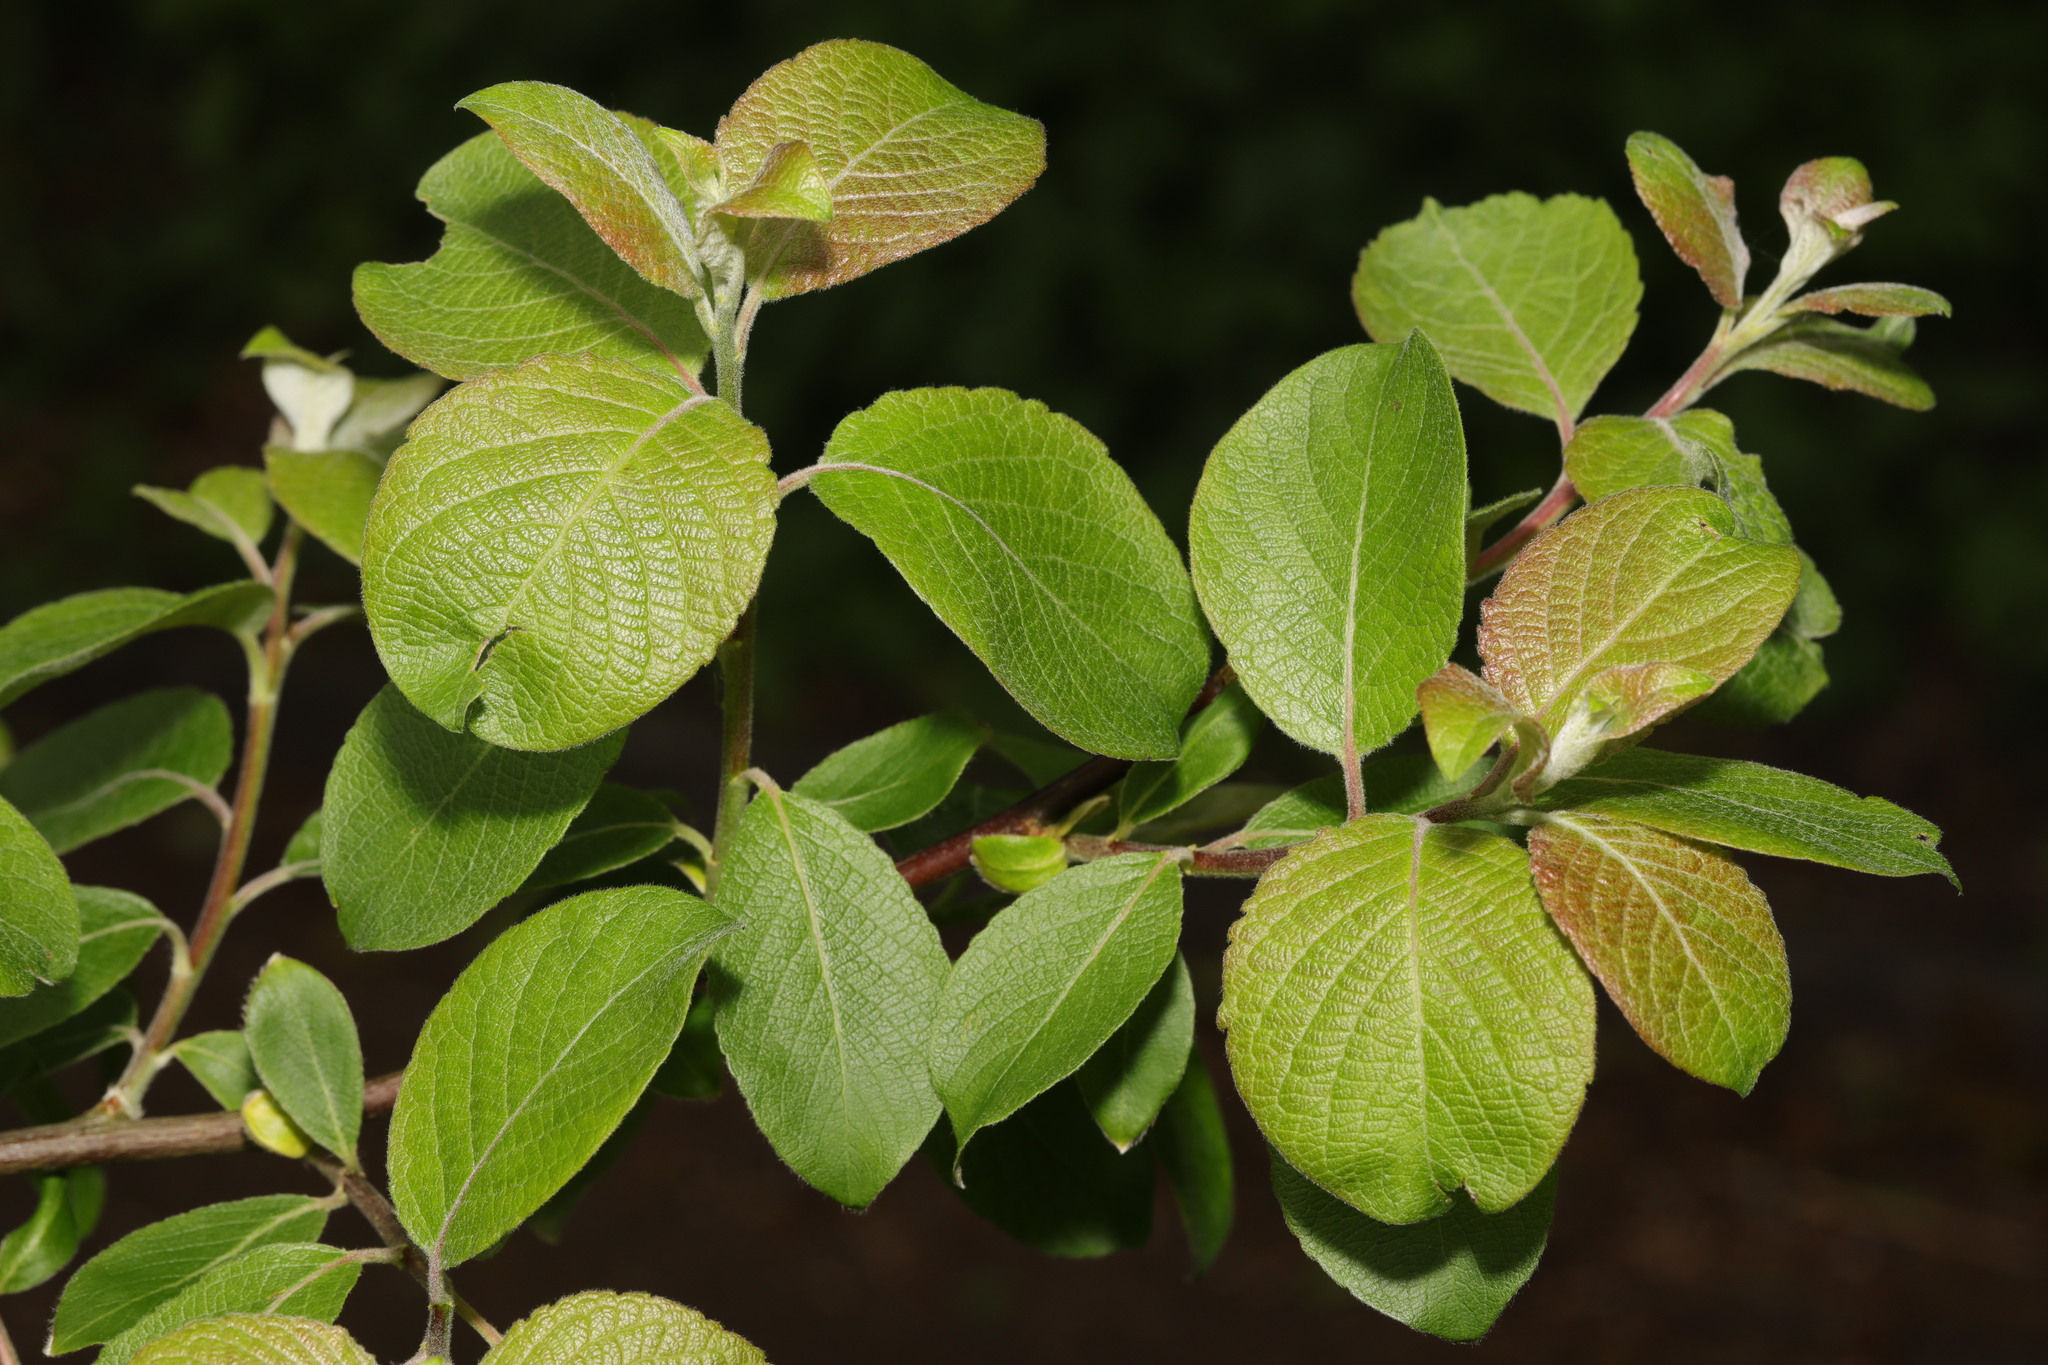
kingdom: Plantae
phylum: Tracheophyta
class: Magnoliopsida
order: Malpighiales
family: Salicaceae
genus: Salix
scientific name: Salix caprea
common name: Goat willow
